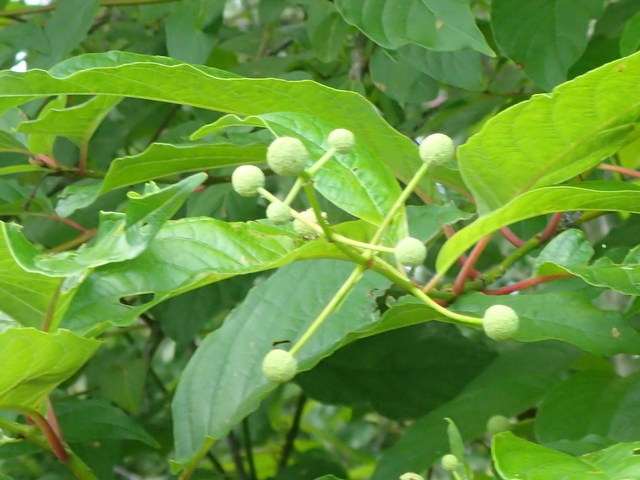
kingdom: Plantae
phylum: Tracheophyta
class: Magnoliopsida
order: Gentianales
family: Rubiaceae
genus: Cephalanthus
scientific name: Cephalanthus occidentalis
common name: Button-willow
